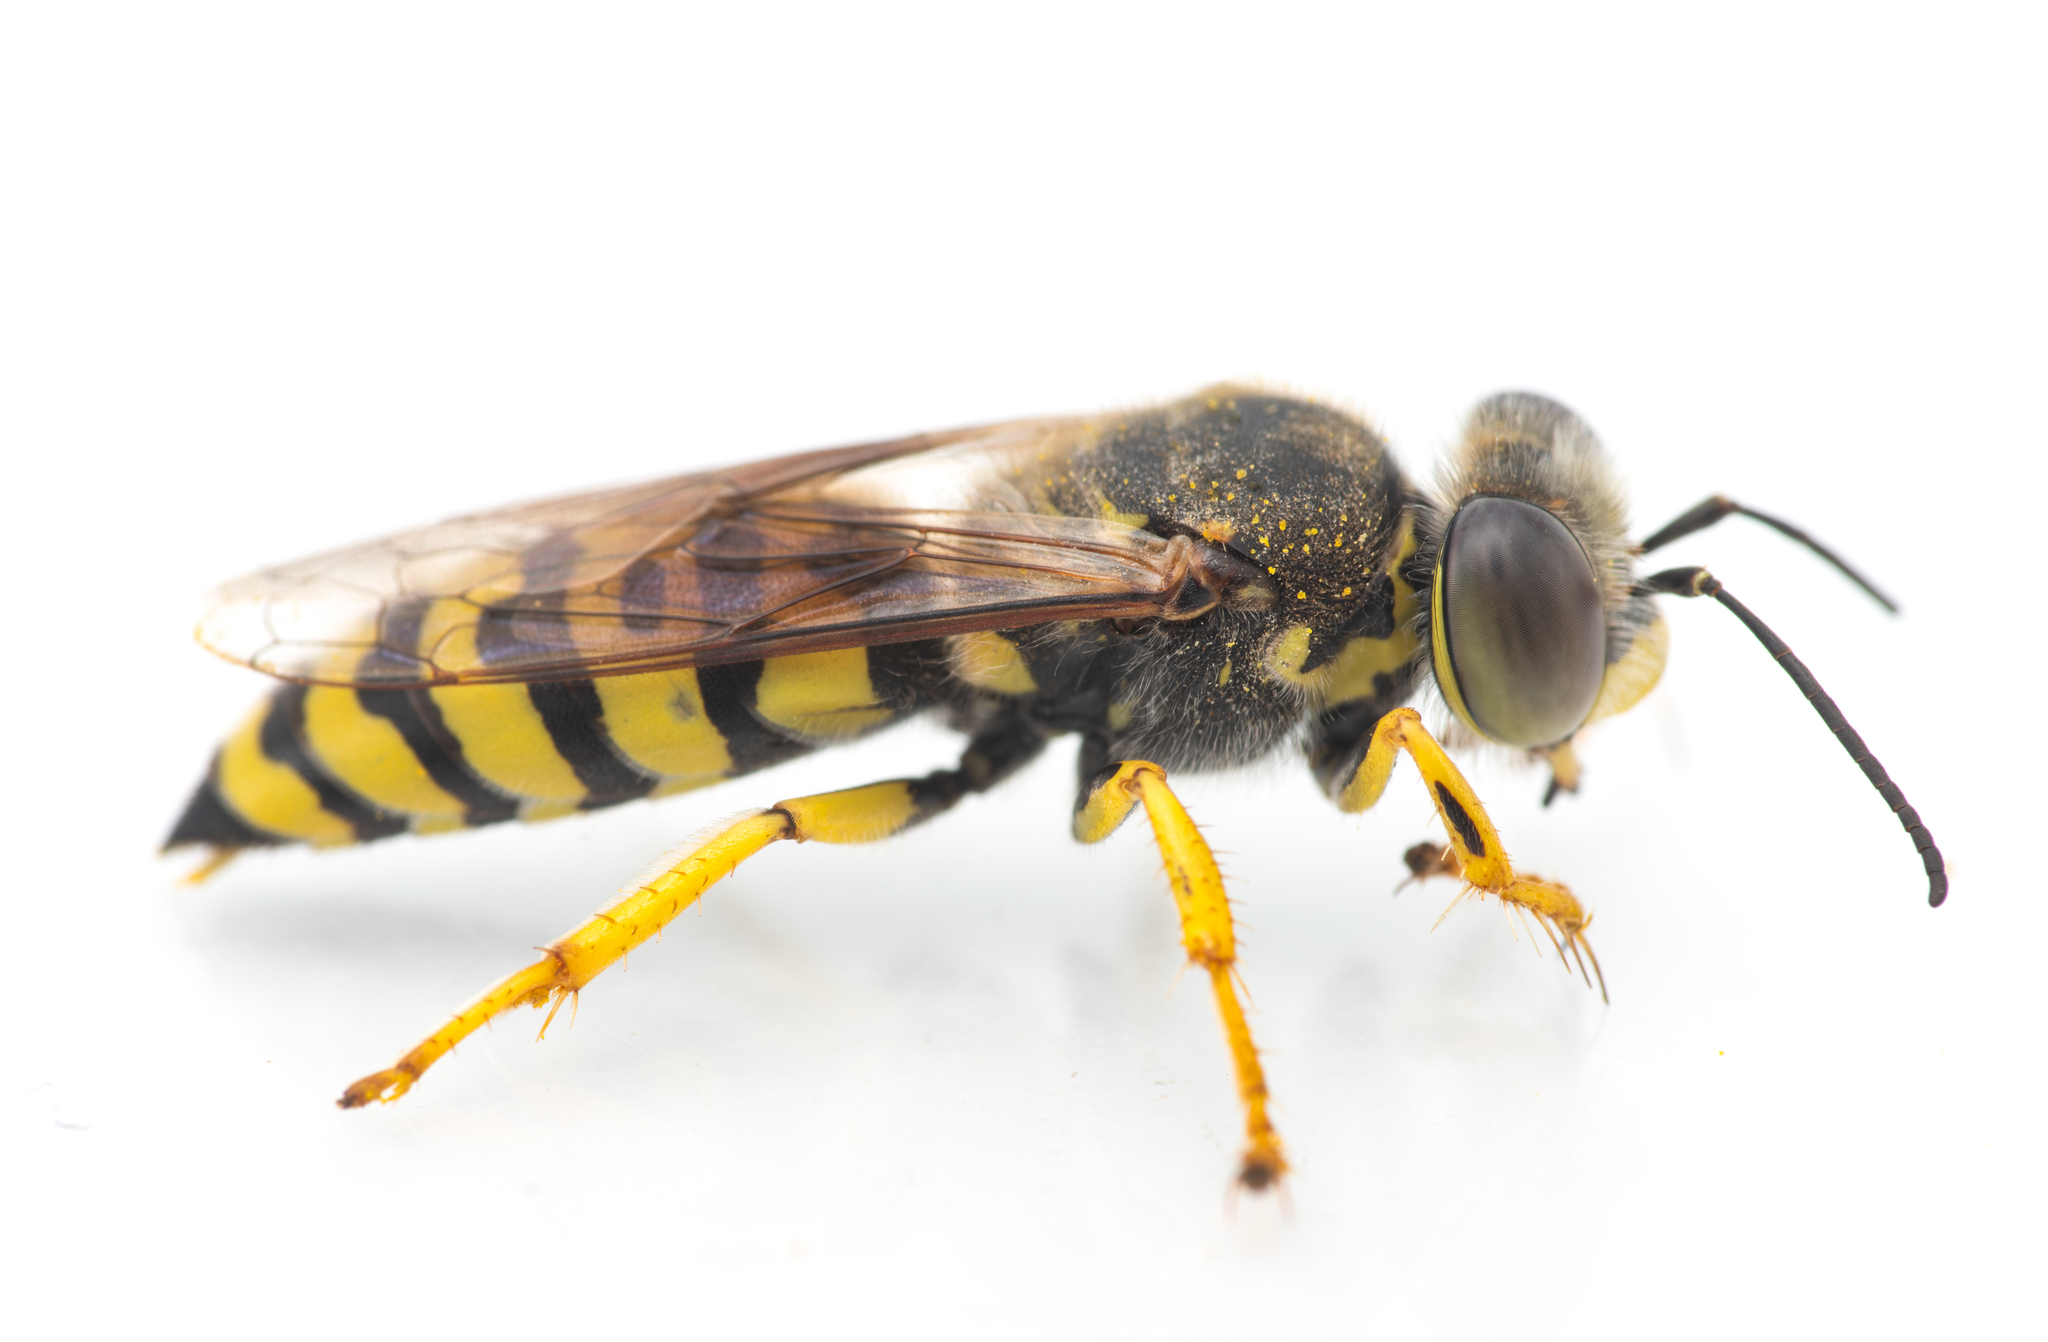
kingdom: Animalia
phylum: Arthropoda
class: Insecta
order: Hymenoptera
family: Crabronidae
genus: Bembix
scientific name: Bembix oculata
